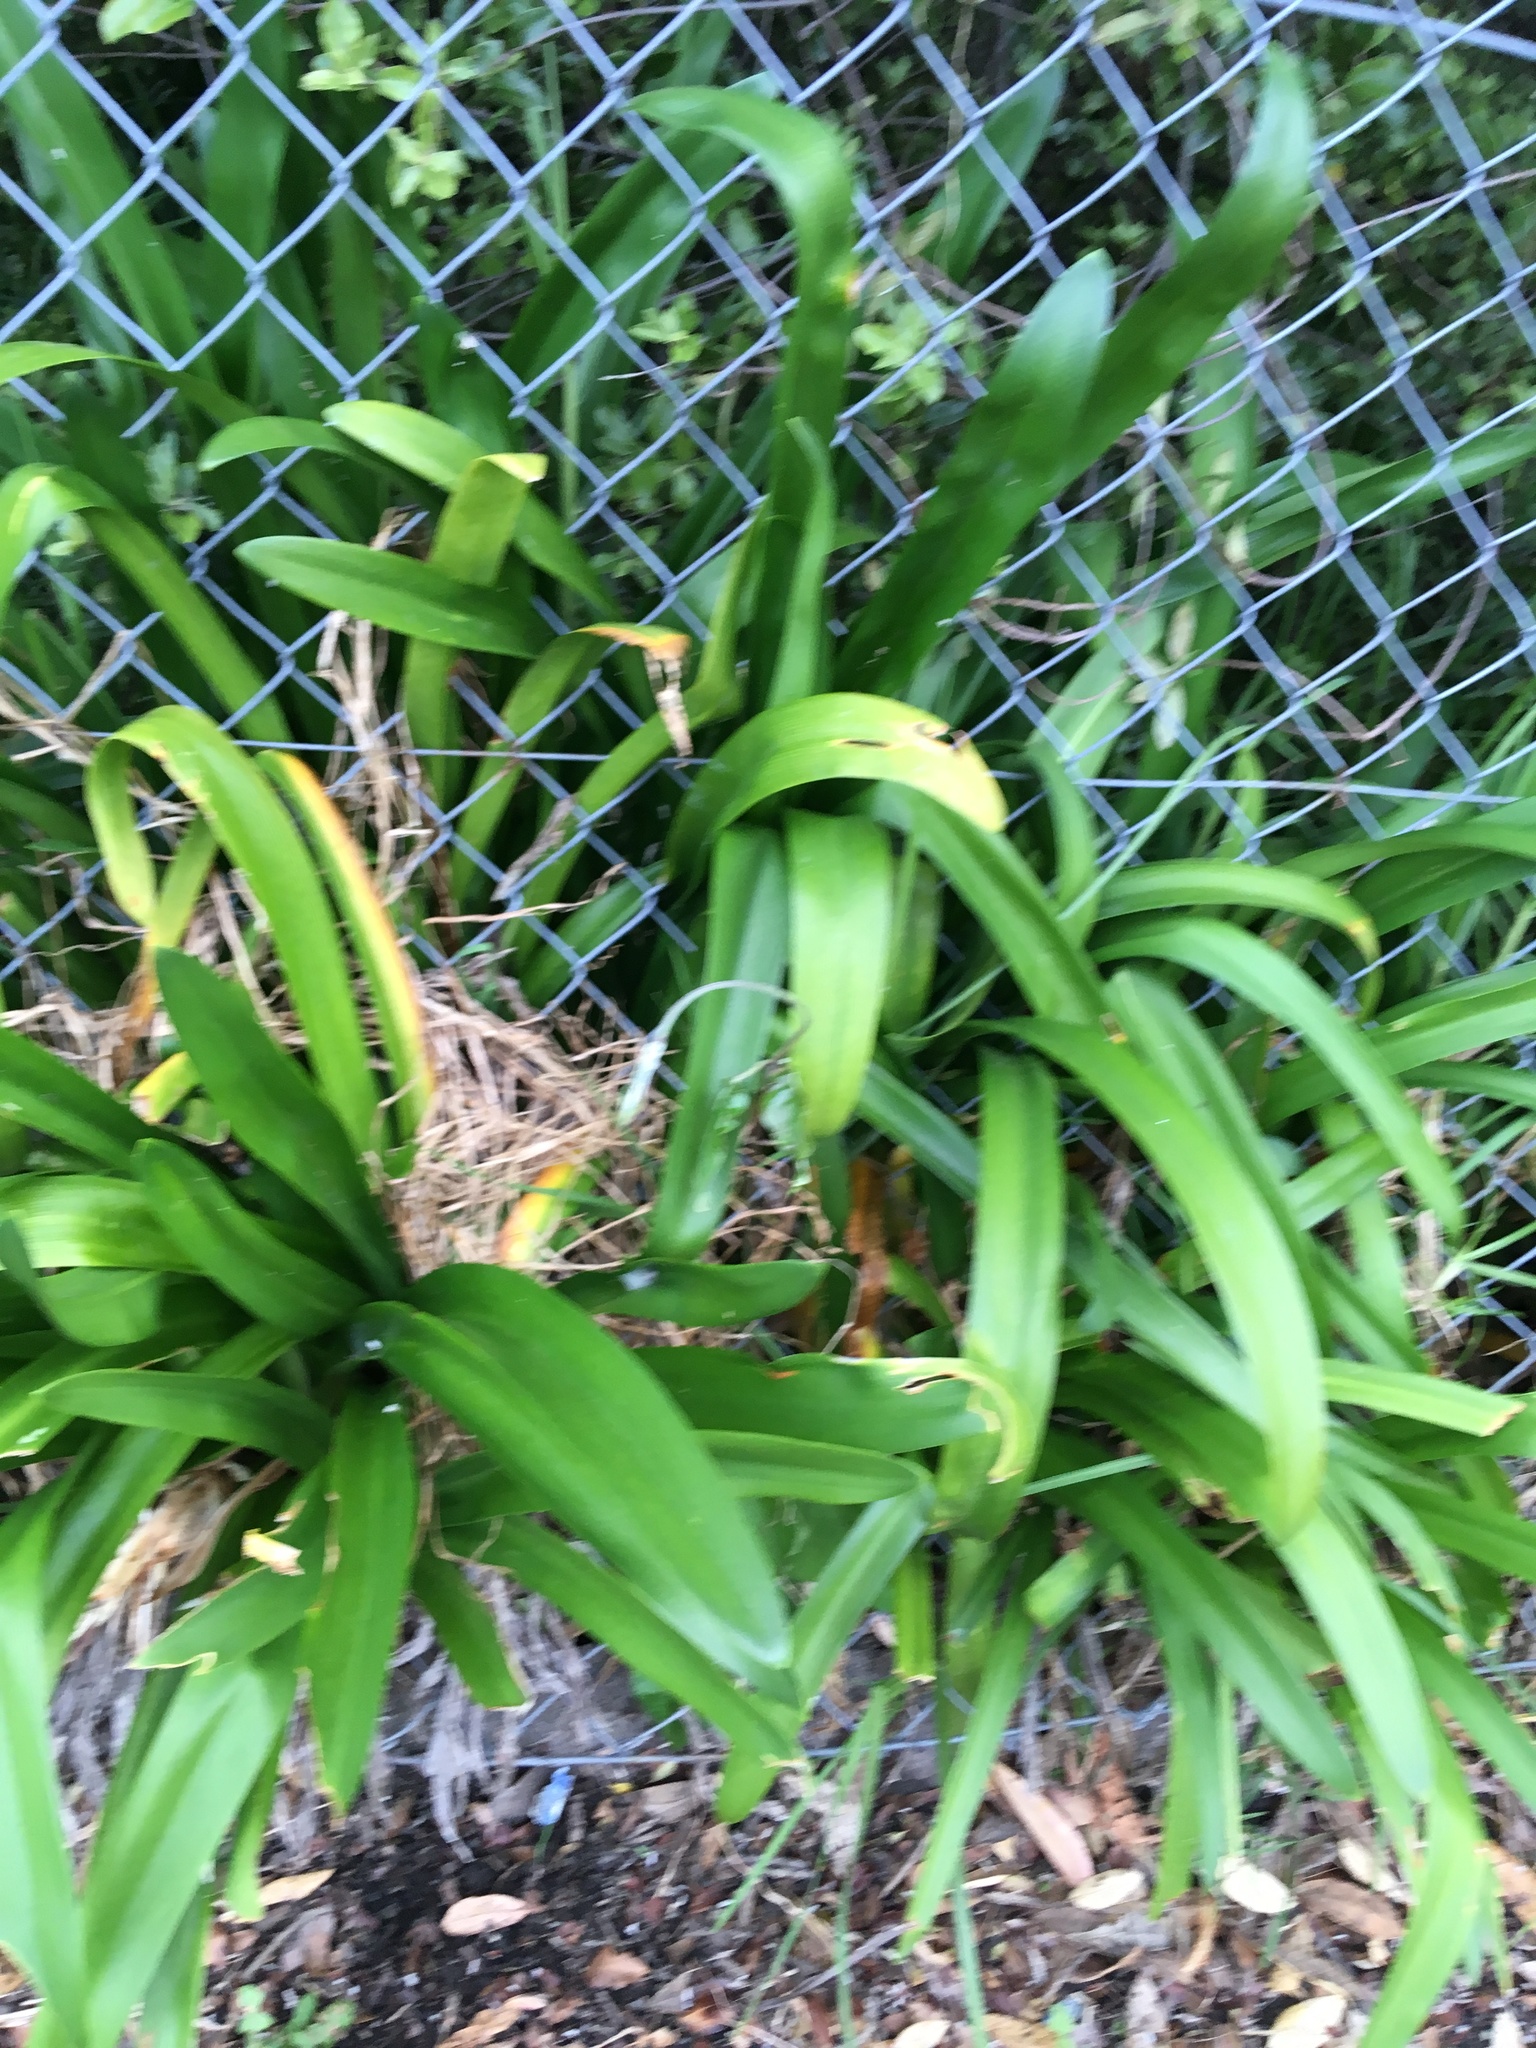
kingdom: Plantae
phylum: Tracheophyta
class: Liliopsida
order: Asparagales
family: Amaryllidaceae
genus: Agapanthus
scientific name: Agapanthus praecox
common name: African-lily
